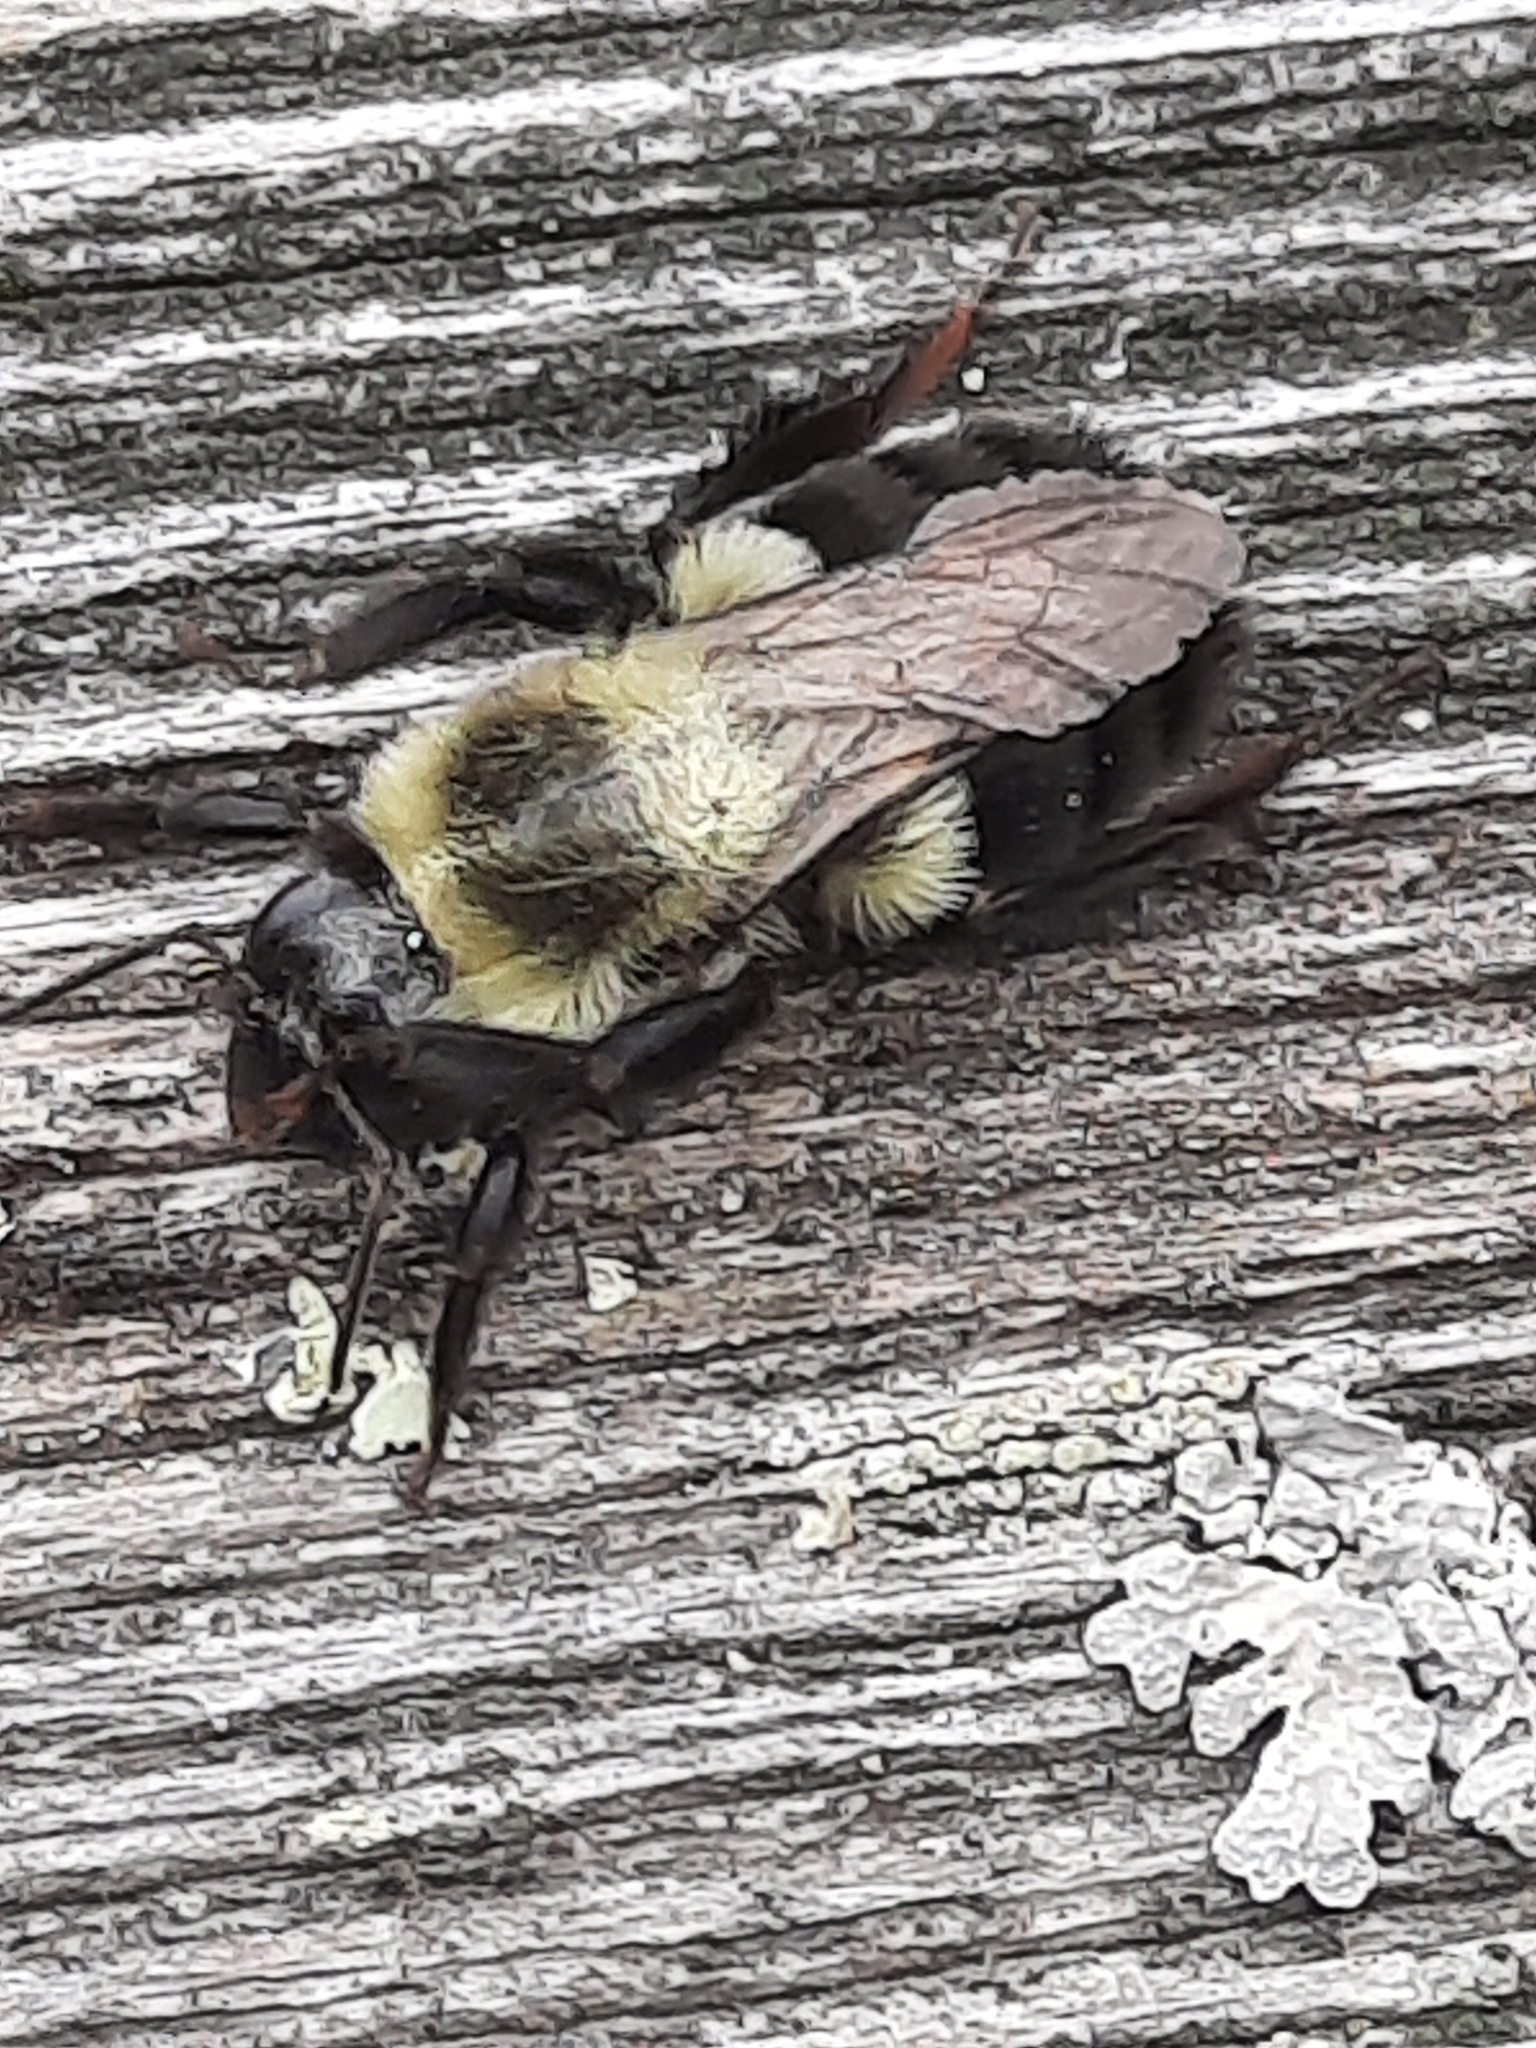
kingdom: Animalia
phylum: Arthropoda
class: Insecta
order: Hymenoptera
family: Apidae
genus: Bombus
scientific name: Bombus impatiens
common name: Common eastern bumble bee
